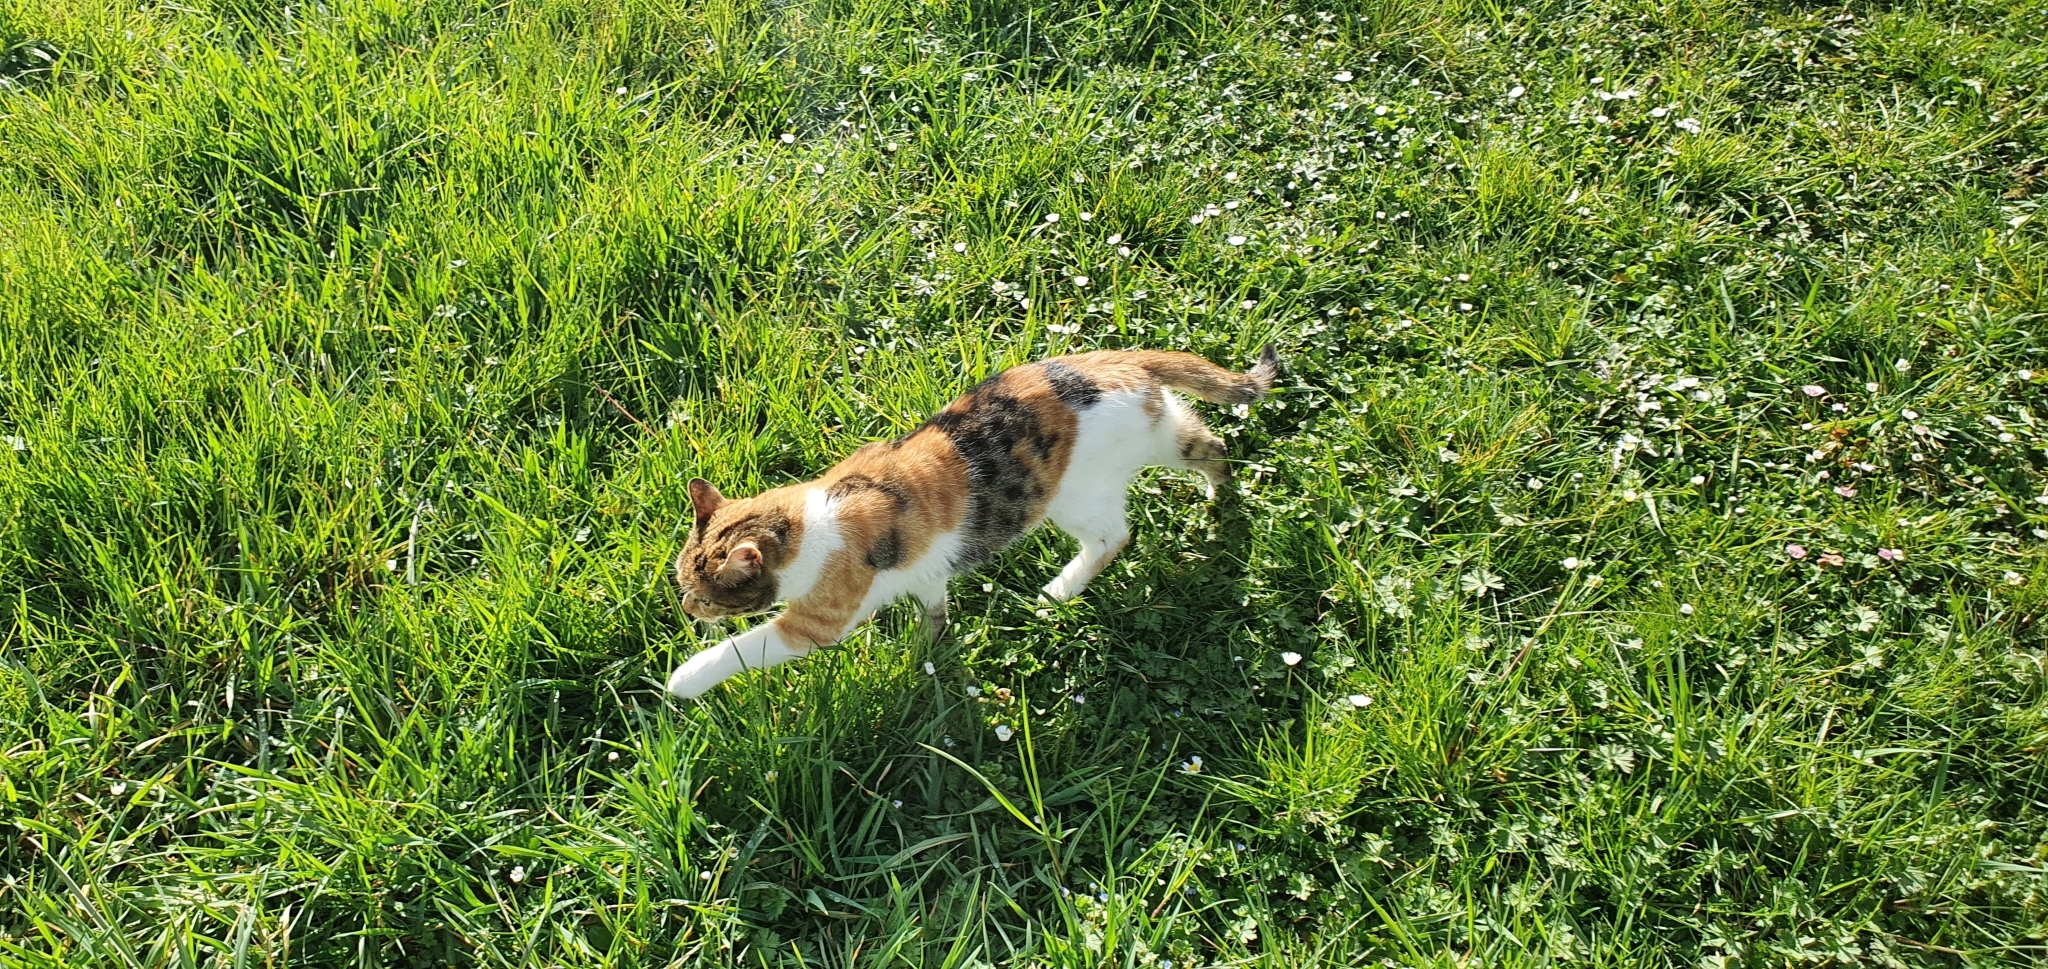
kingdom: Animalia
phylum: Chordata
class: Mammalia
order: Carnivora
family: Felidae
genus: Felis
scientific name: Felis catus
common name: Domestic cat
